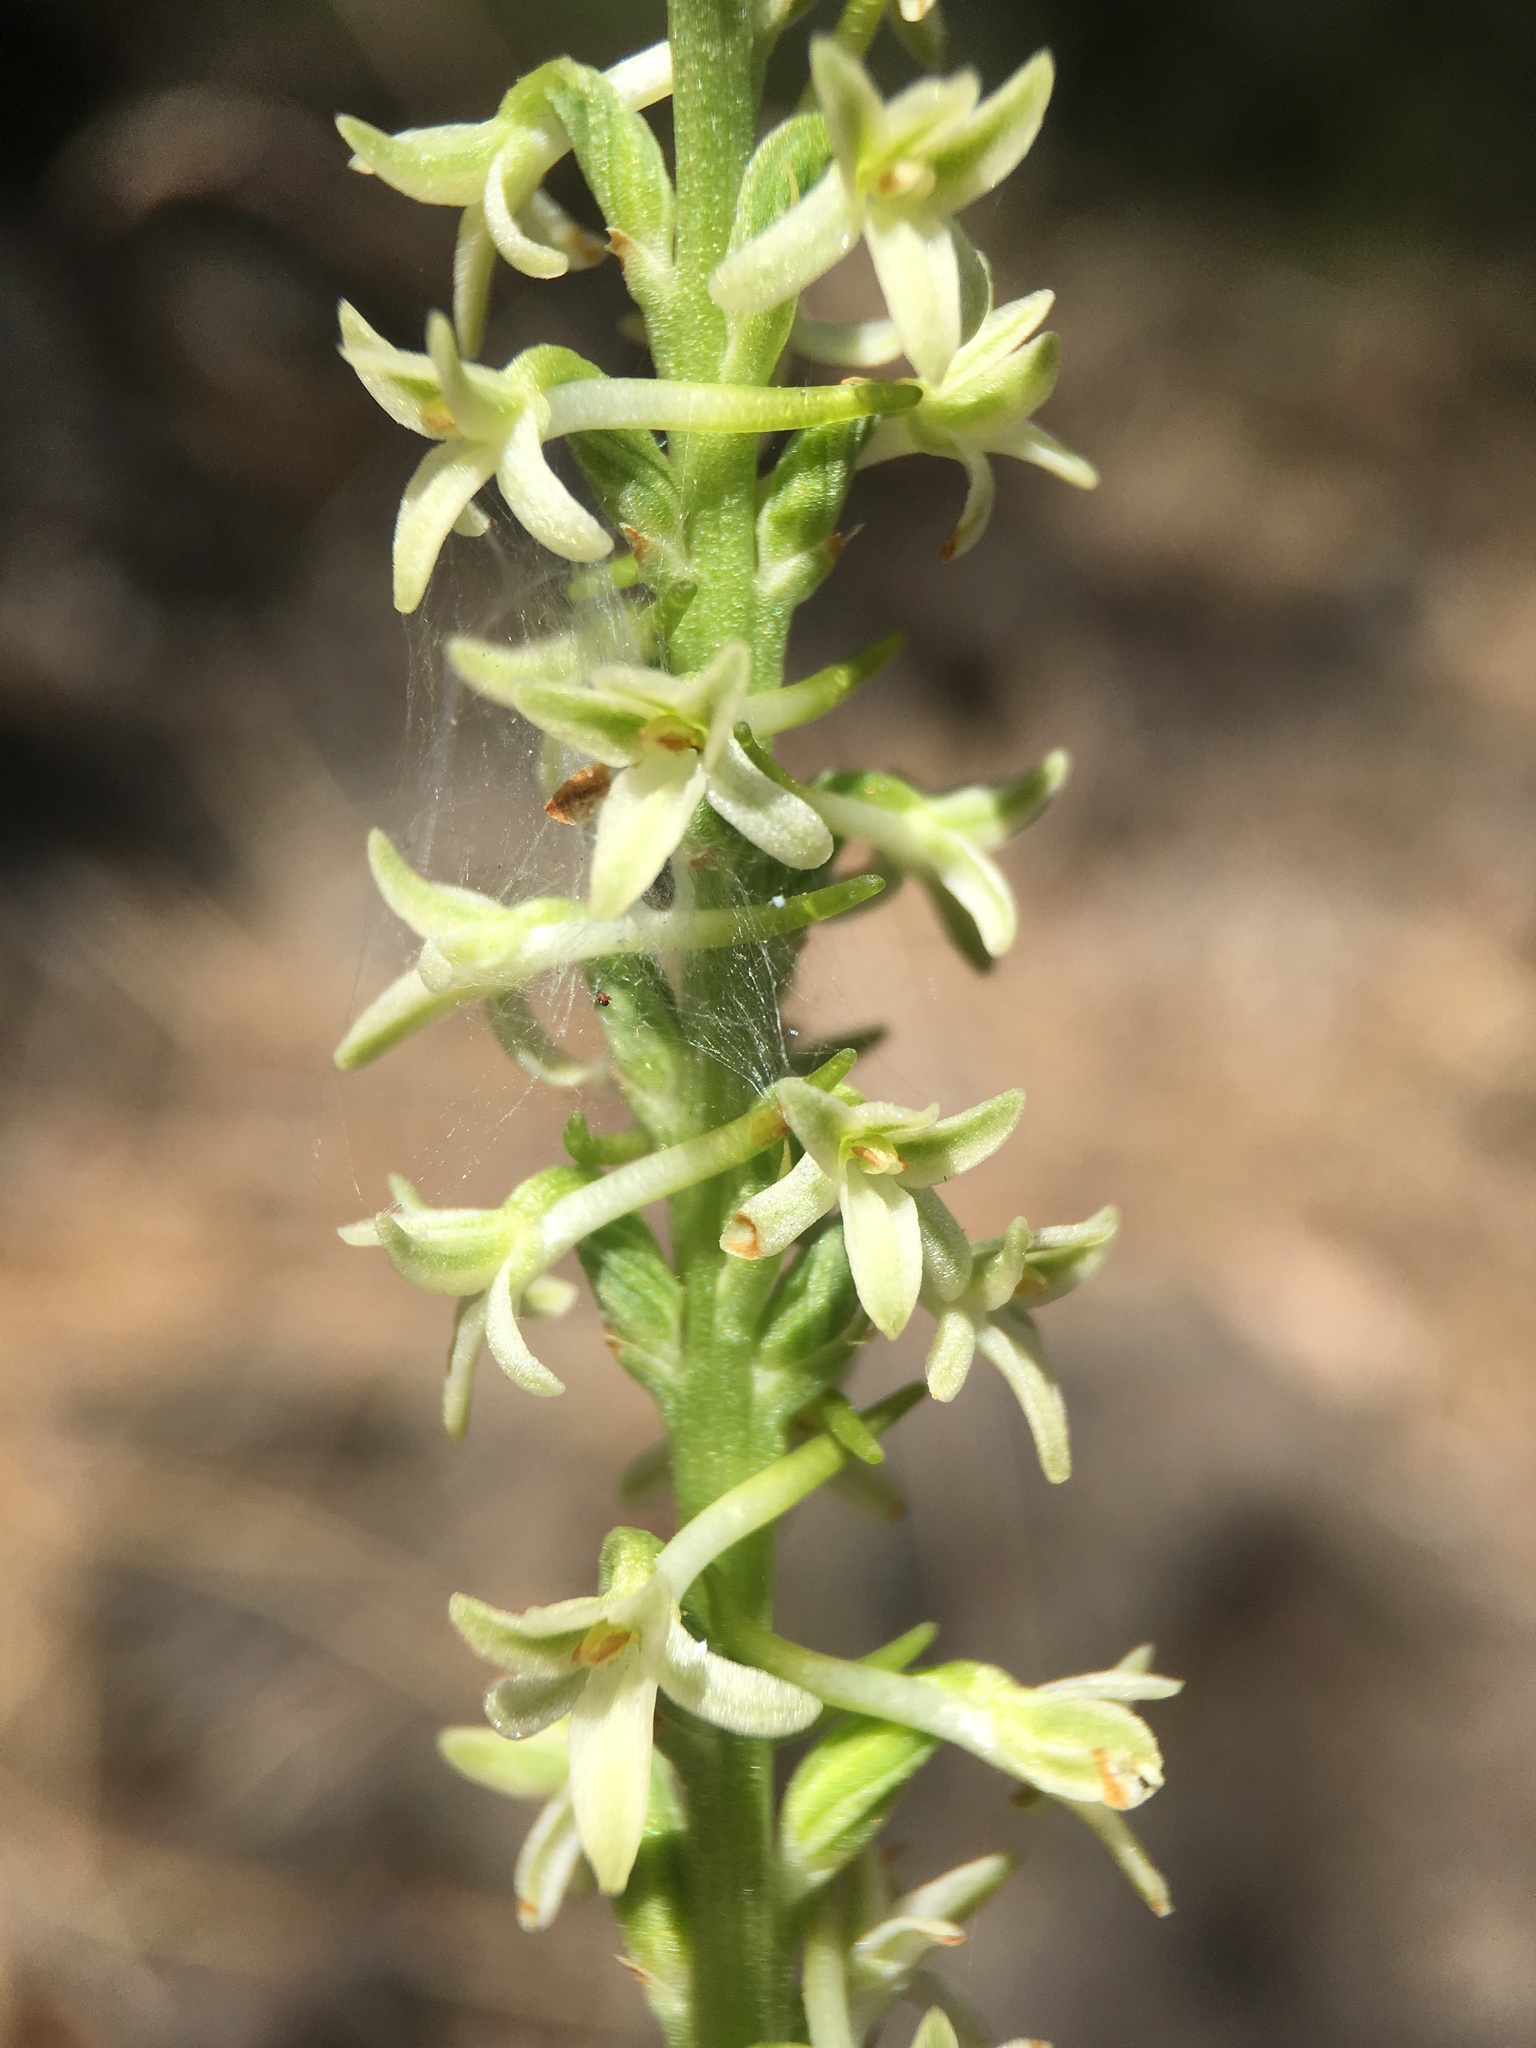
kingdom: Plantae
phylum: Tracheophyta
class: Liliopsida
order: Asparagales
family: Orchidaceae
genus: Platanthera
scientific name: Platanthera transversa
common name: Royal rein orchid
